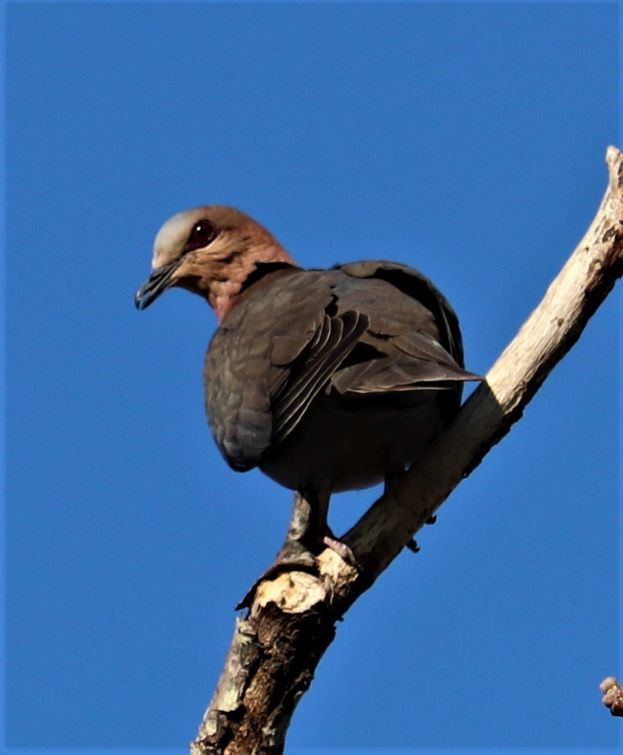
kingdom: Animalia
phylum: Chordata
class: Aves
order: Columbiformes
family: Columbidae
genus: Streptopelia
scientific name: Streptopelia semitorquata
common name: Red-eyed dove
